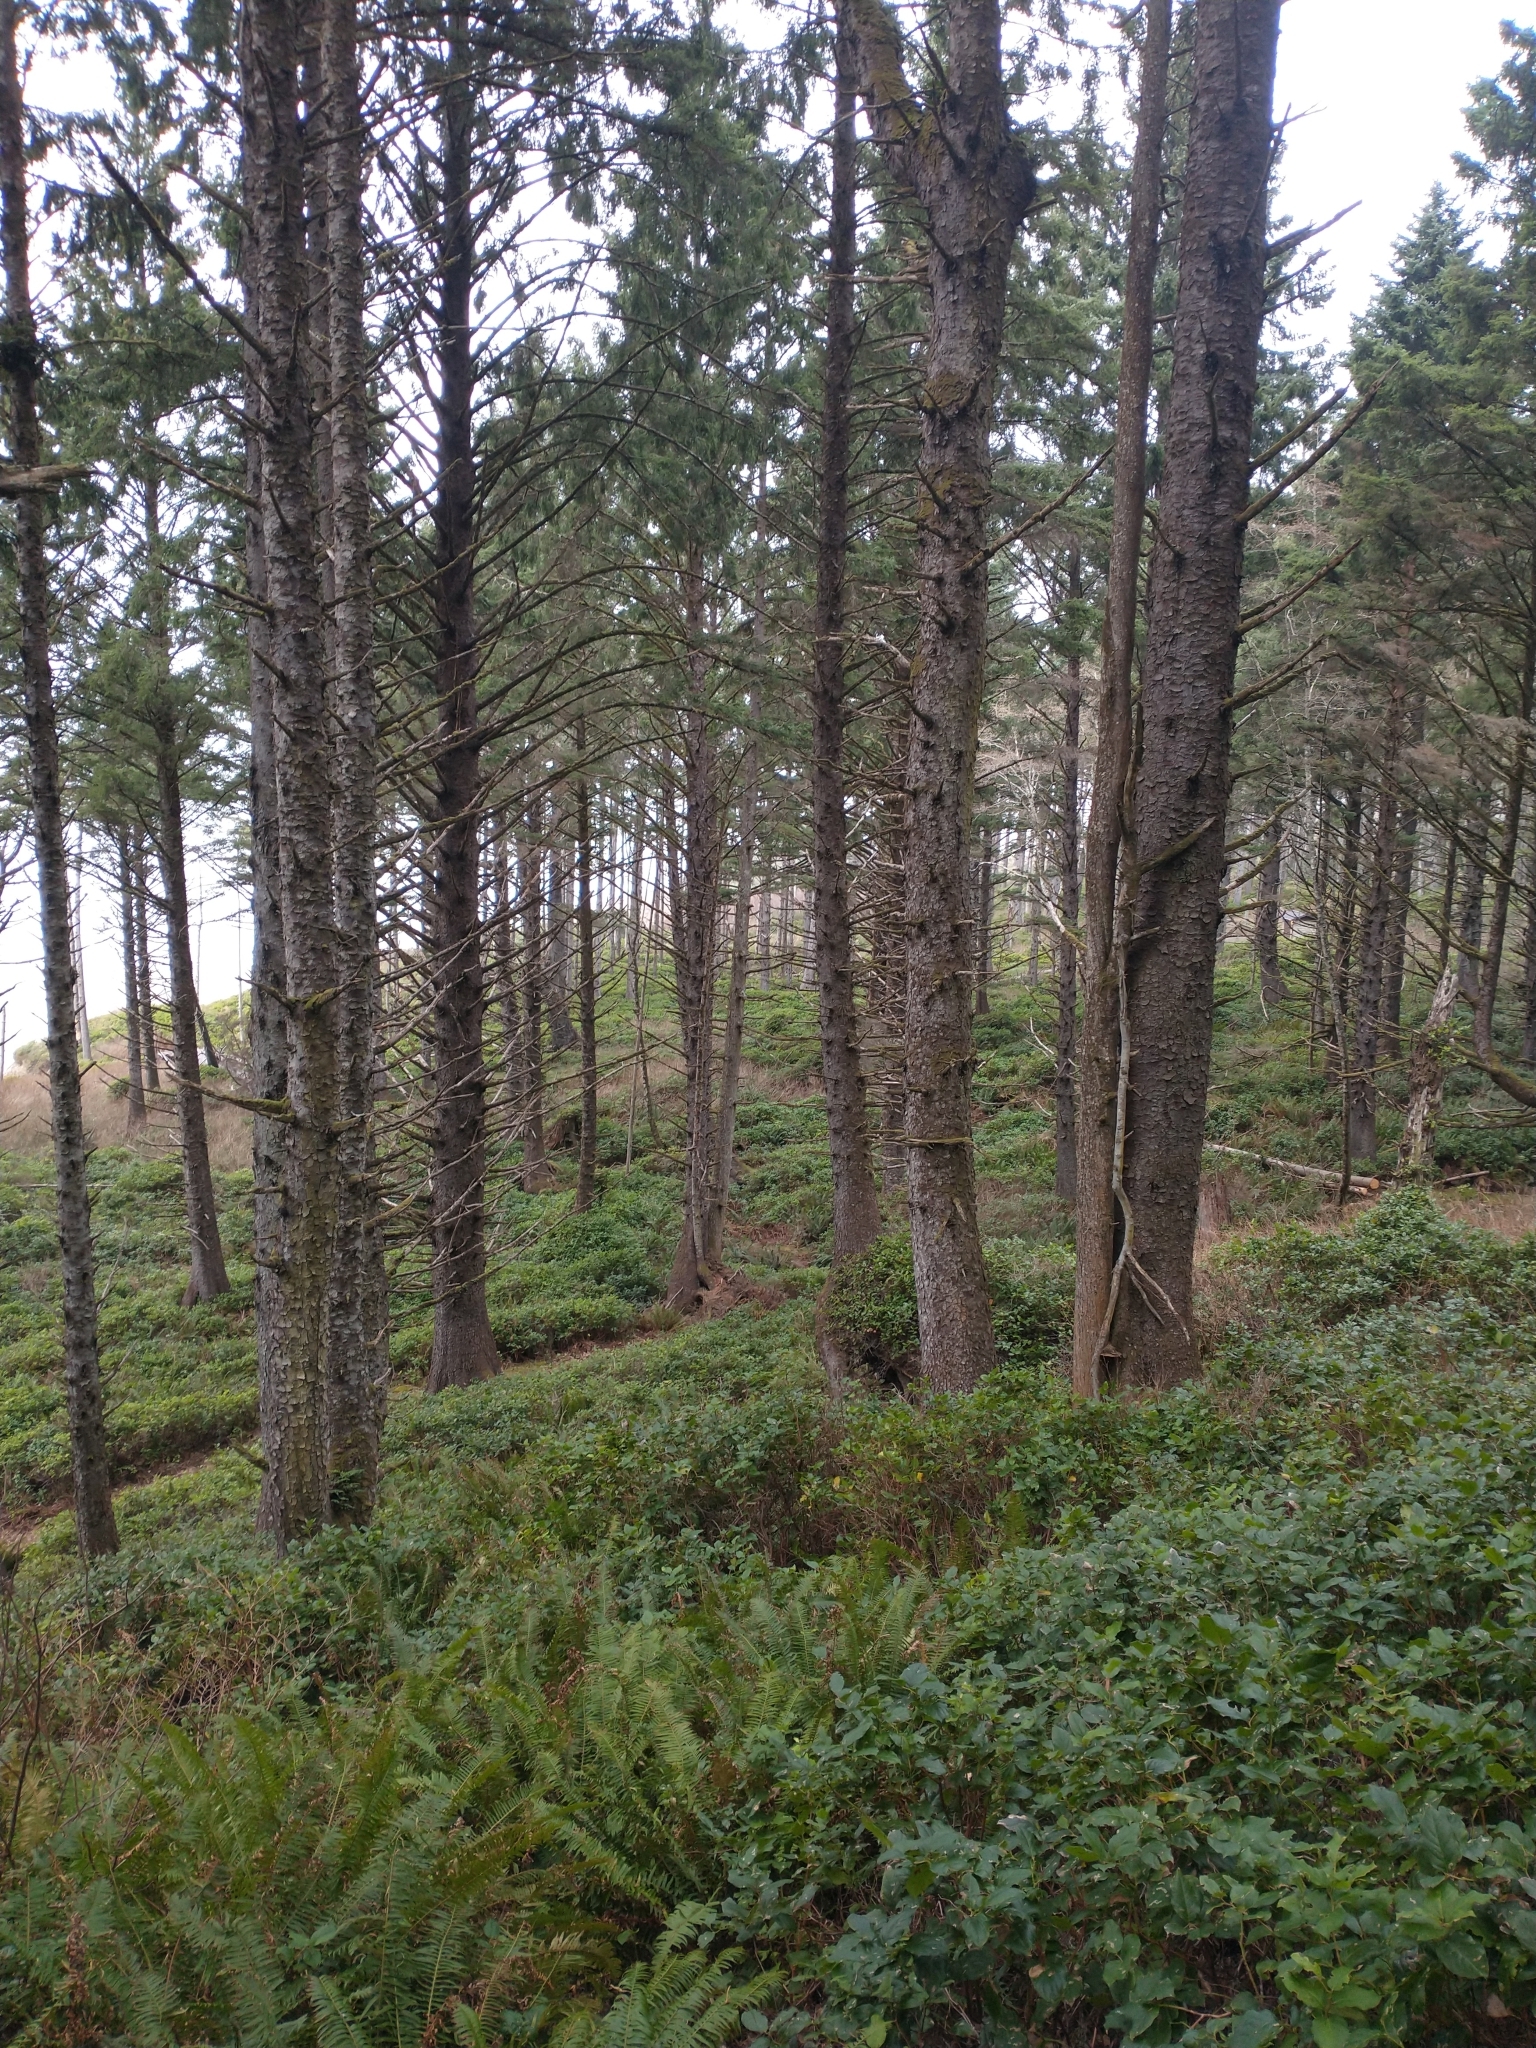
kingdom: Plantae
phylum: Tracheophyta
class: Polypodiopsida
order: Polypodiales
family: Dryopteridaceae
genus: Polystichum
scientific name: Polystichum munitum
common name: Western sword-fern
